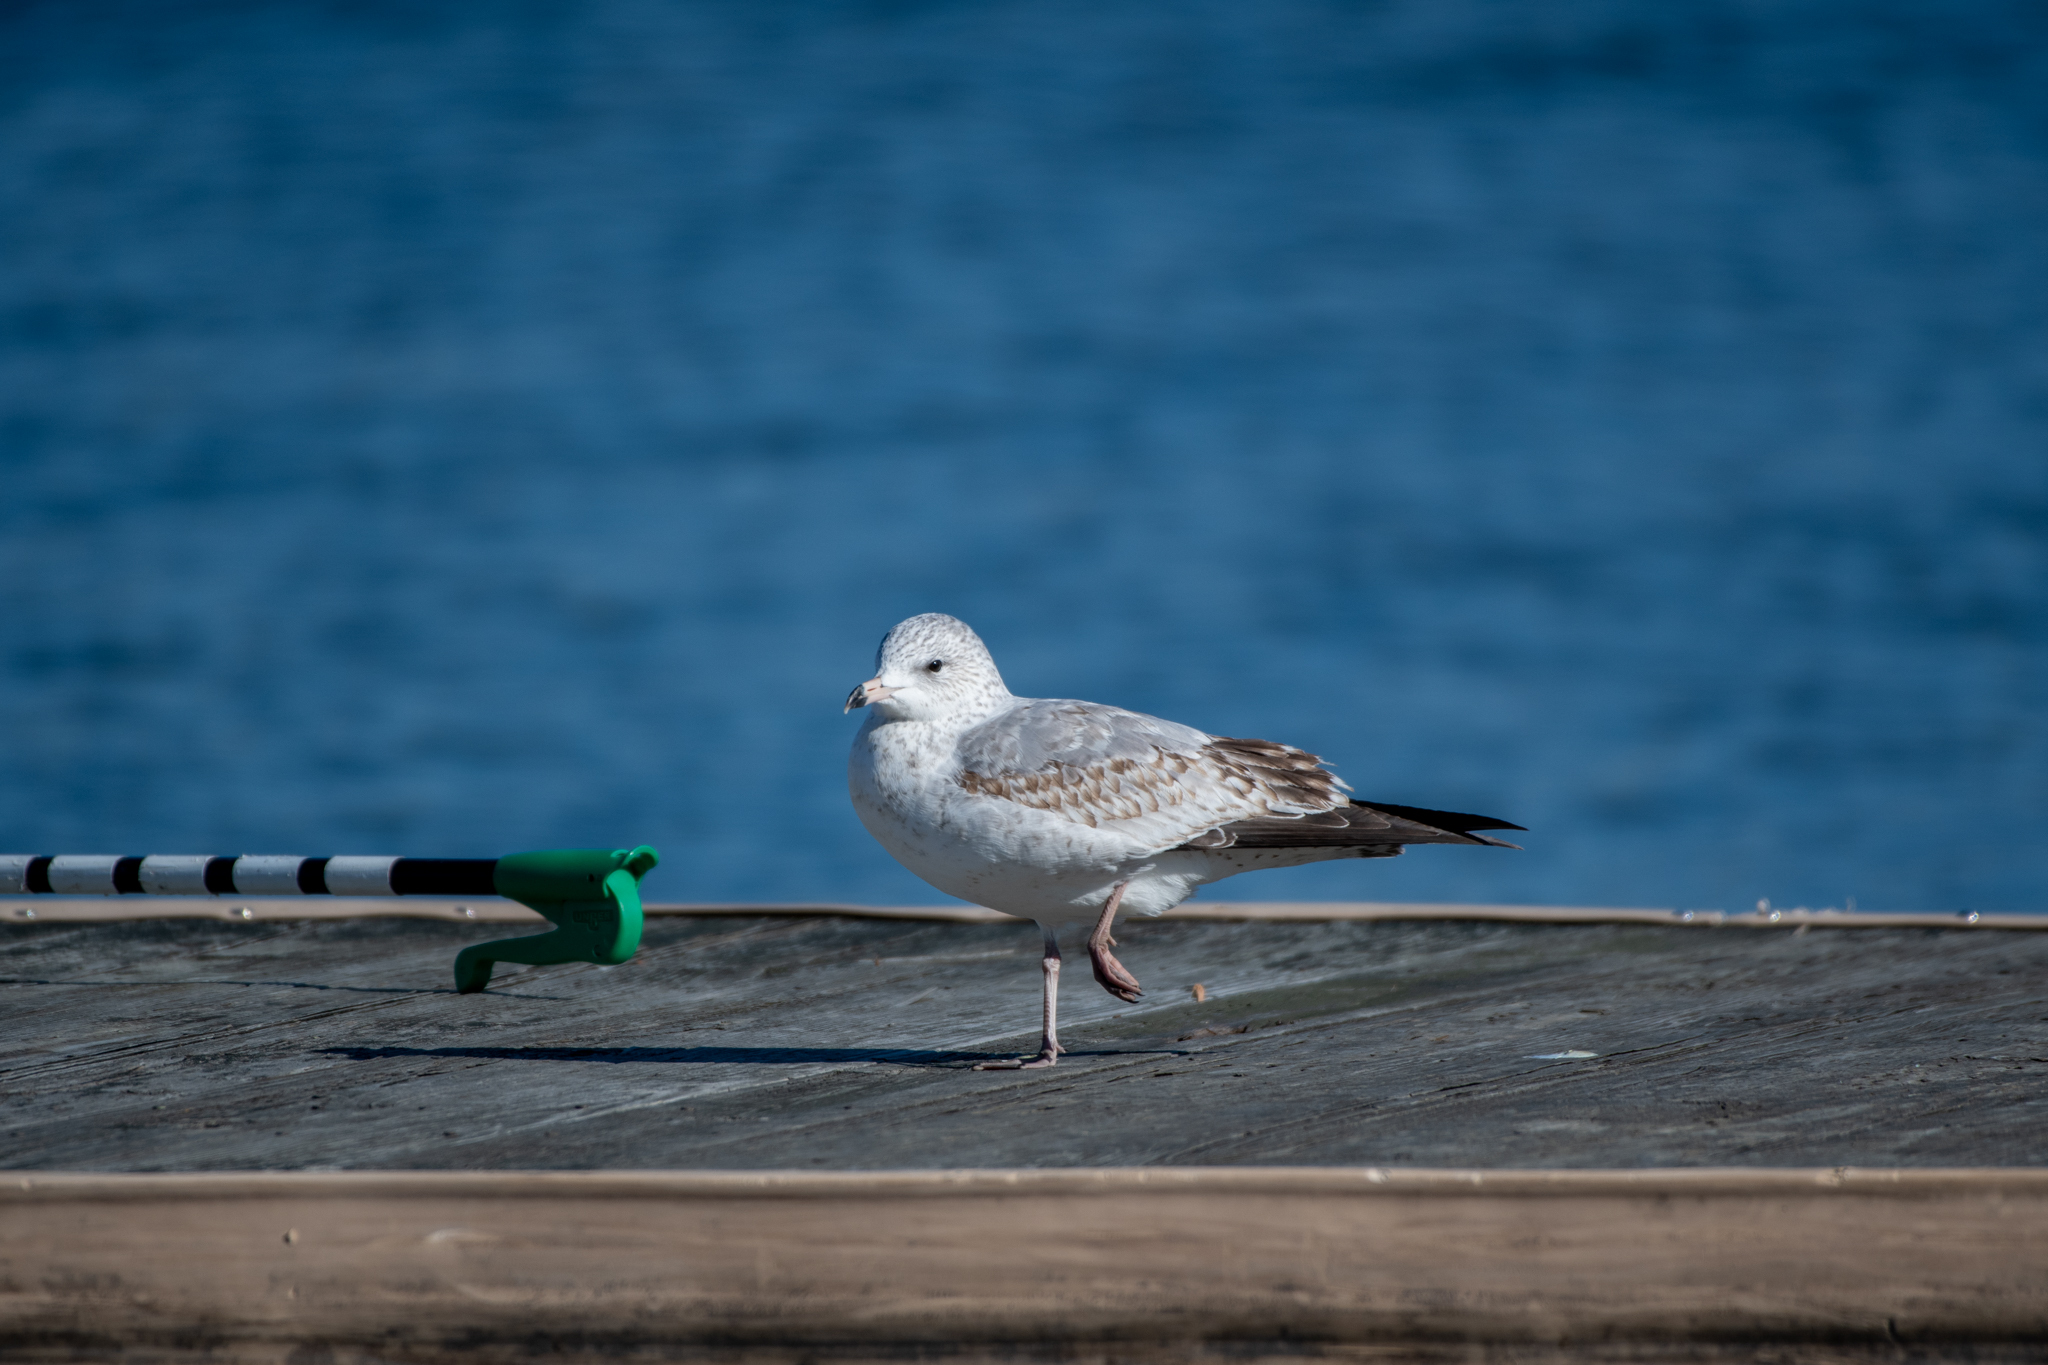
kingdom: Animalia
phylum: Chordata
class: Aves
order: Charadriiformes
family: Laridae
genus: Larus
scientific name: Larus delawarensis
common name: Ring-billed gull
